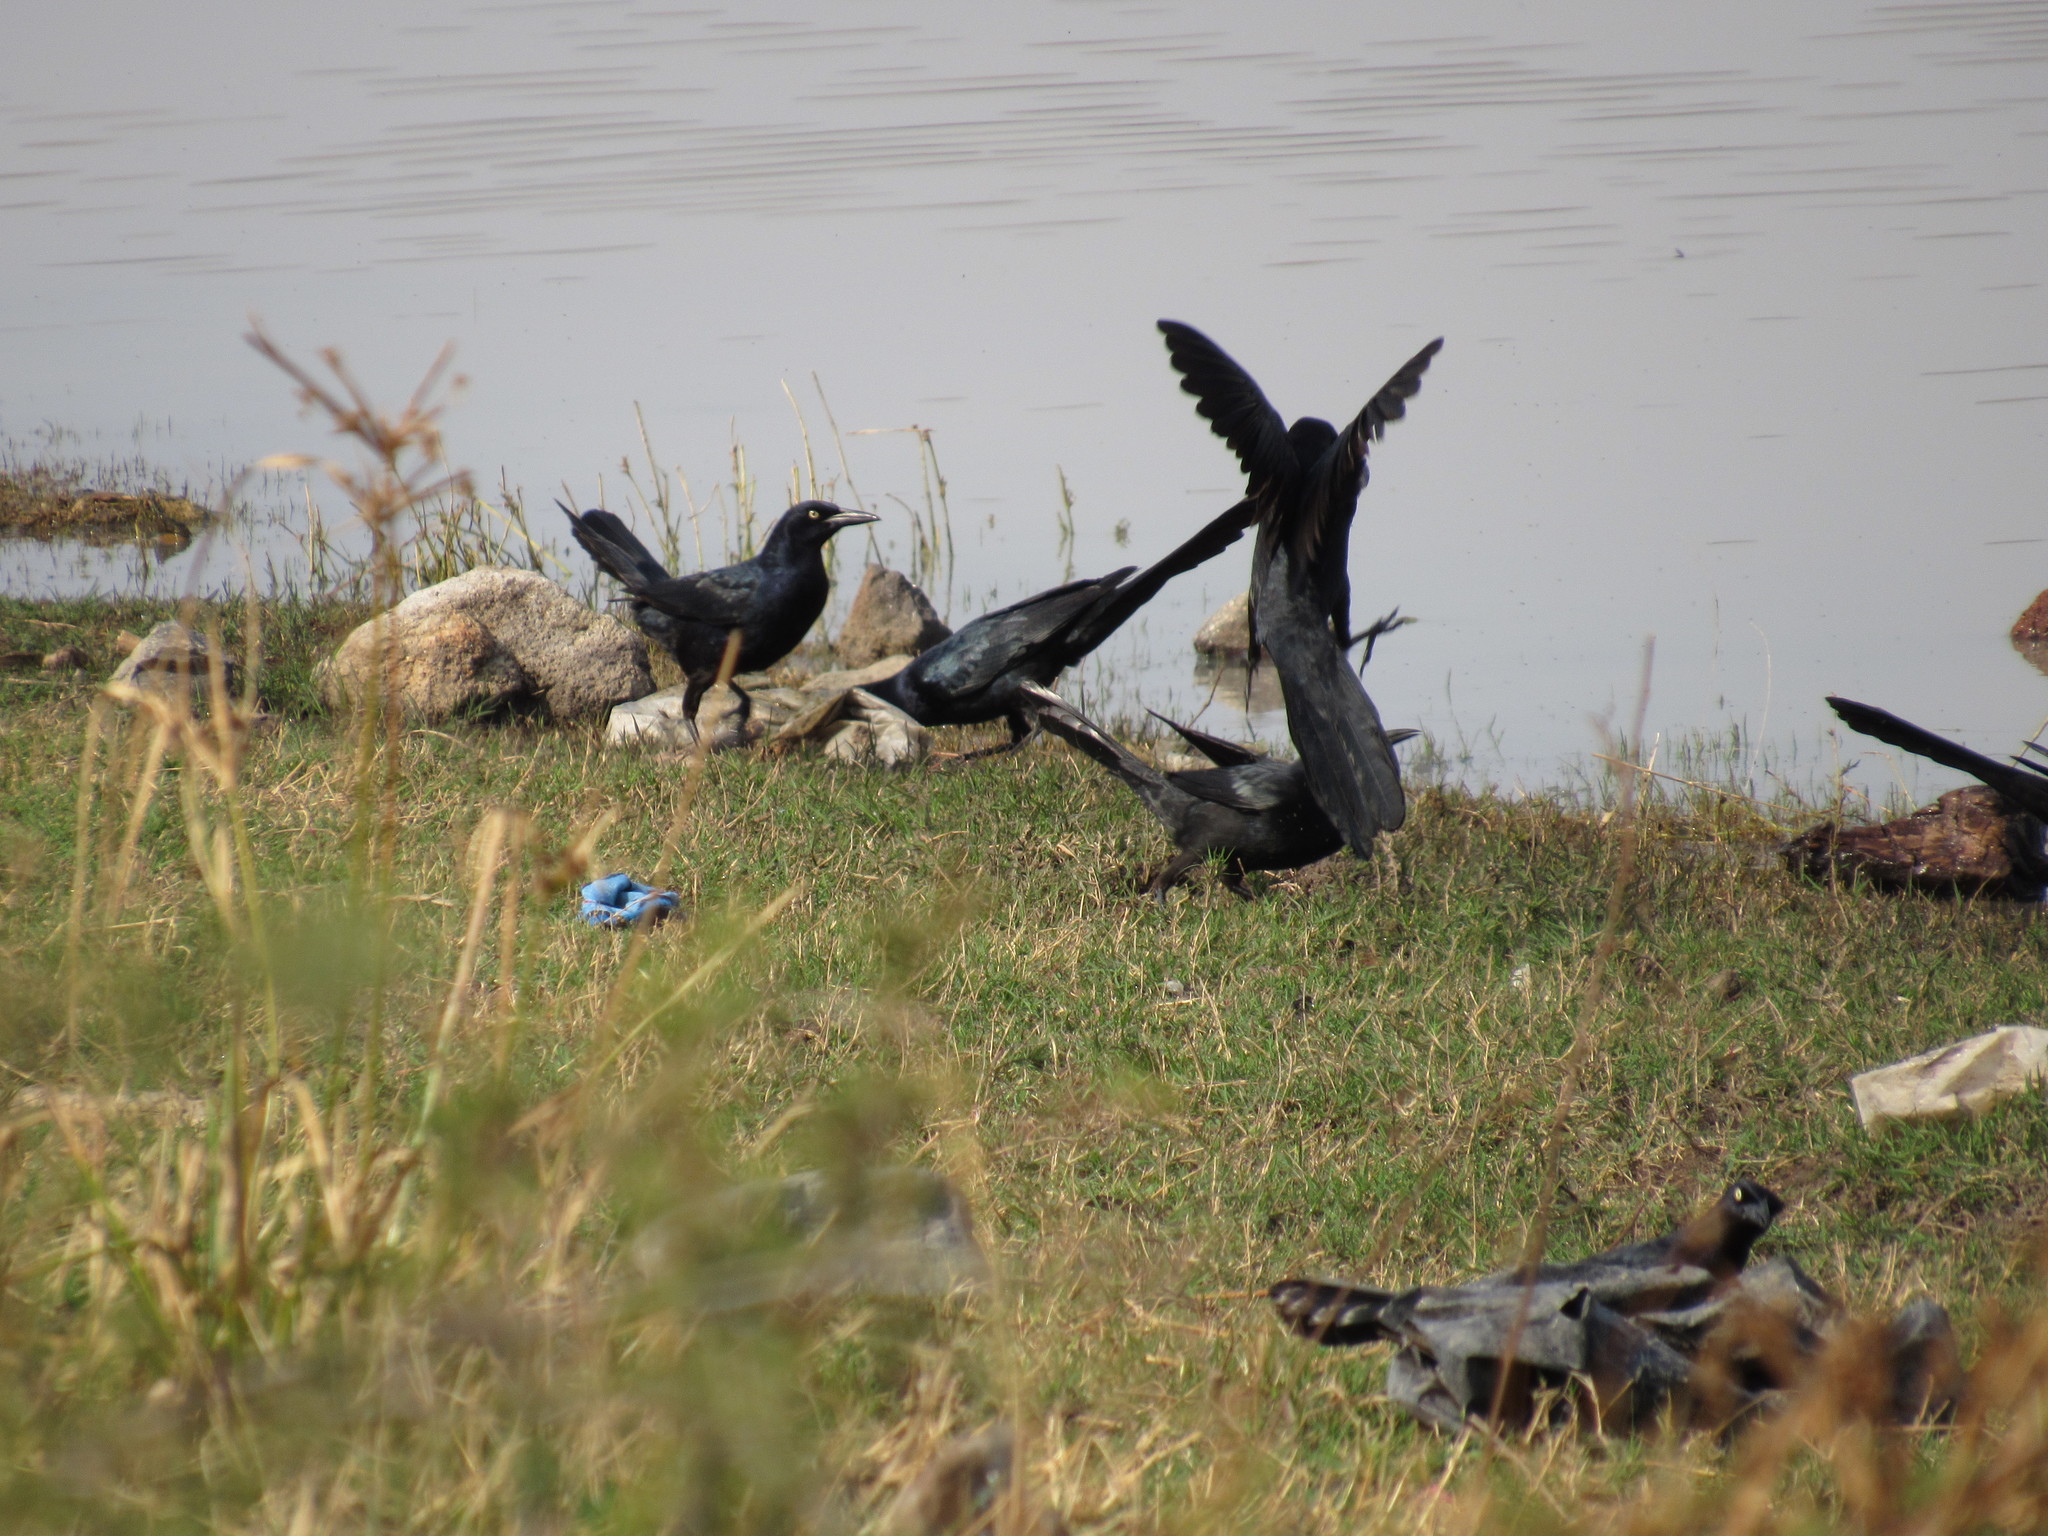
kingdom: Animalia
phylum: Chordata
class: Aves
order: Passeriformes
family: Icteridae
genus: Quiscalus
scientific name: Quiscalus mexicanus
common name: Great-tailed grackle
